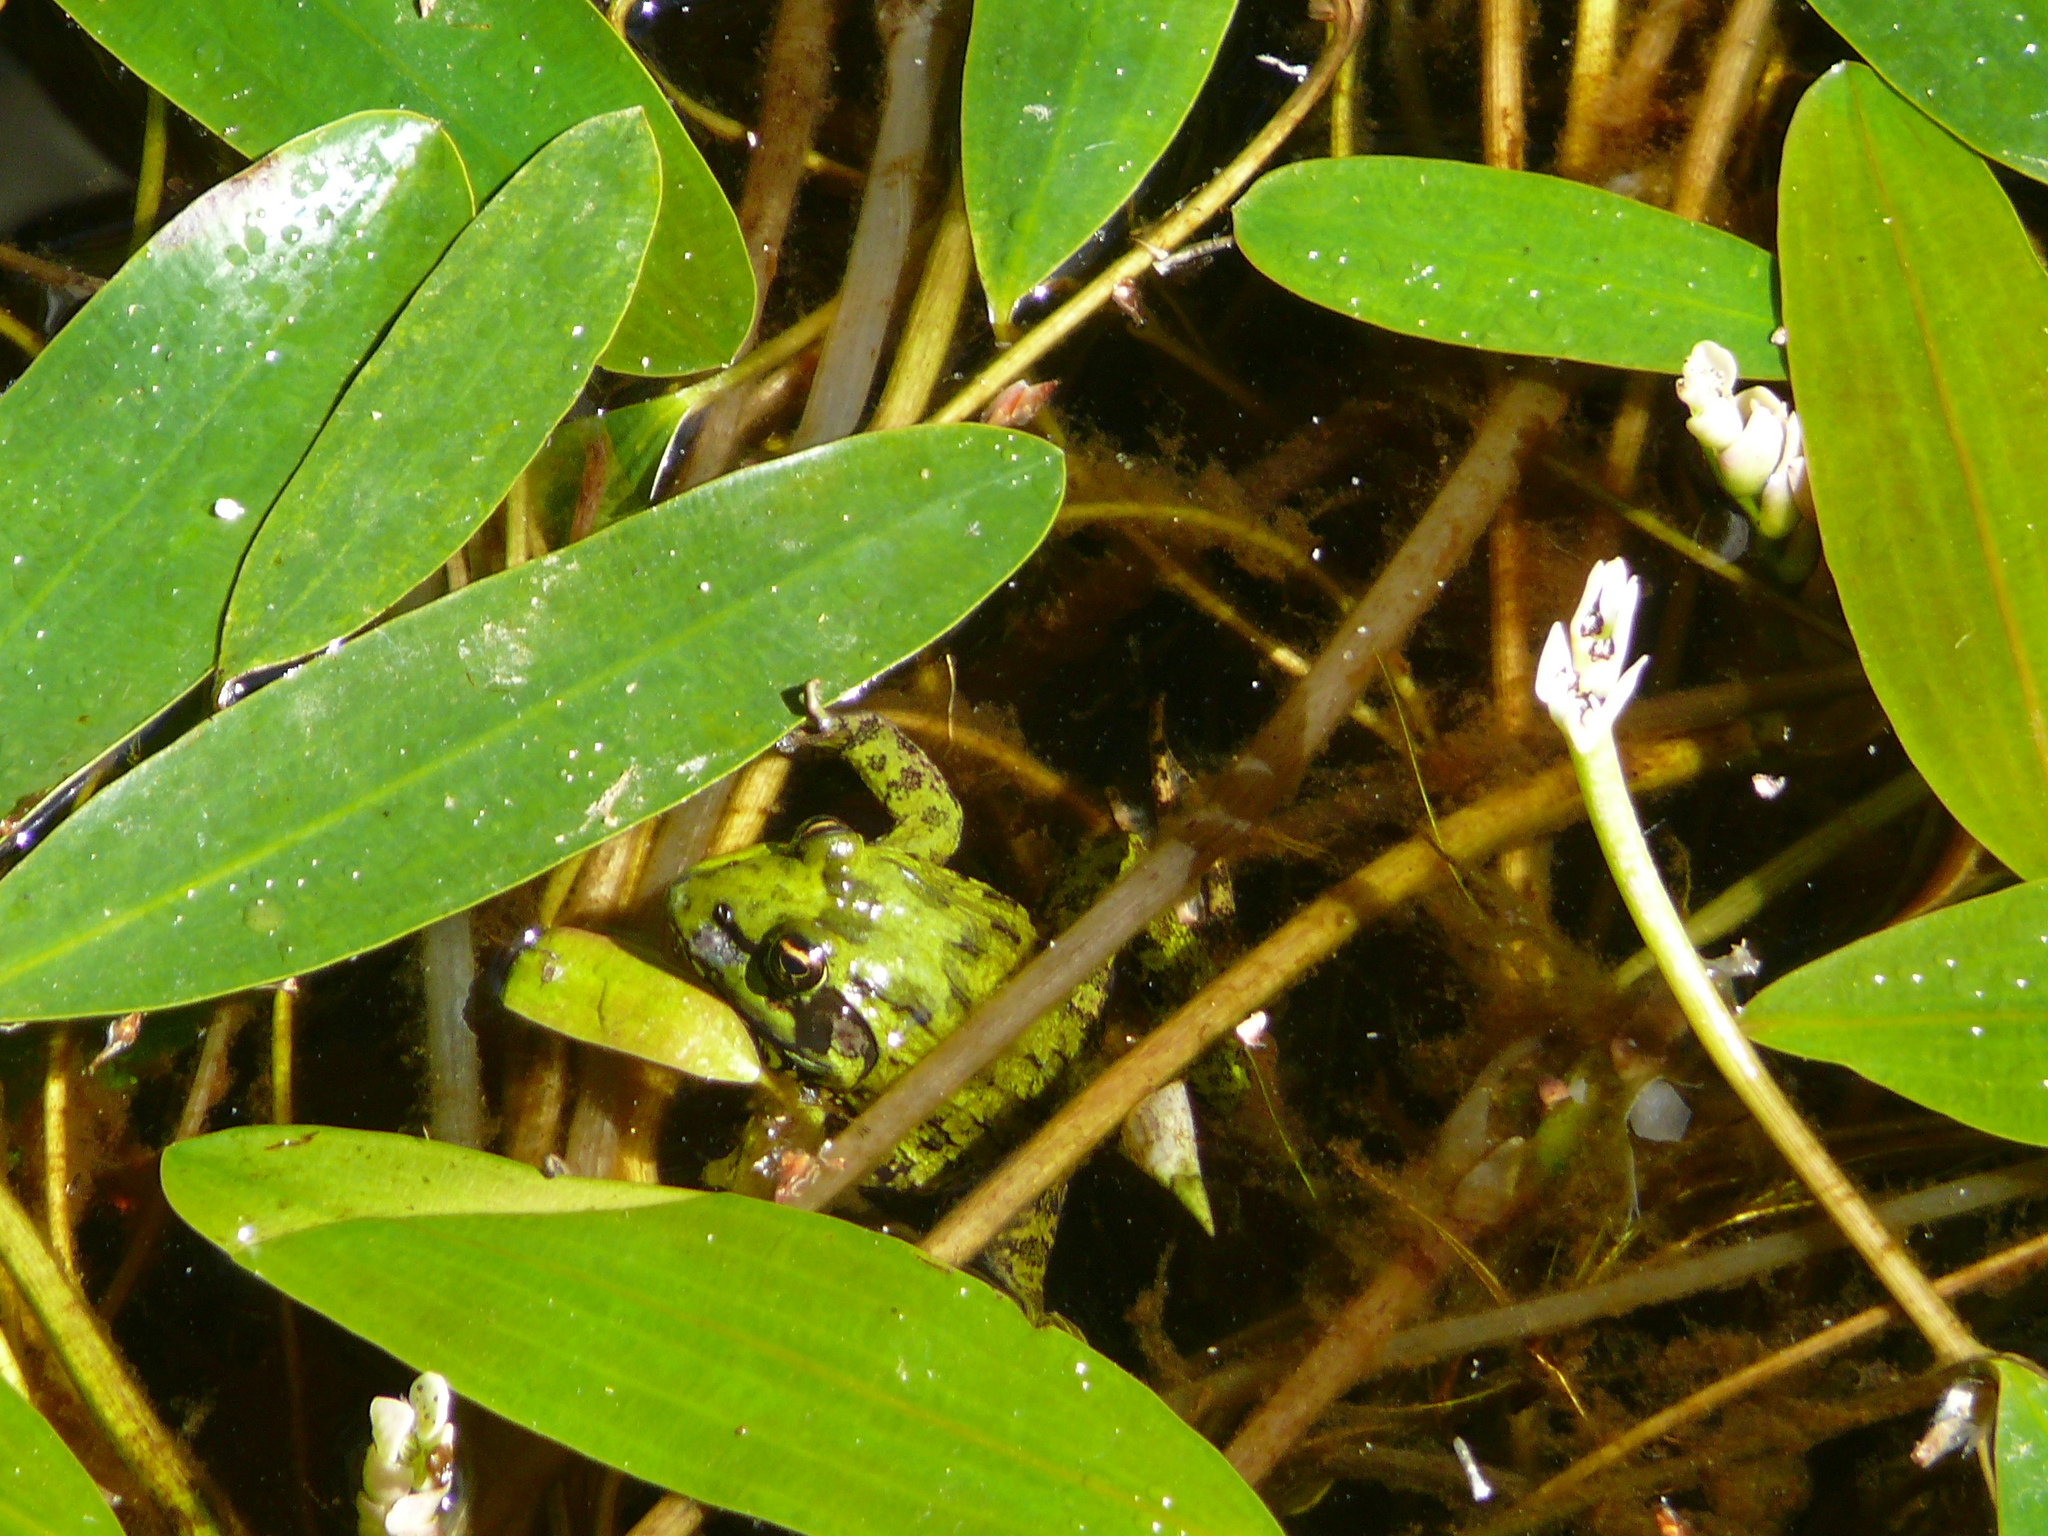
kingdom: Animalia
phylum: Chordata
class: Amphibia
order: Anura
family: Pyxicephalidae
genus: Amietia
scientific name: Amietia fuscigula
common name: Cape rana
